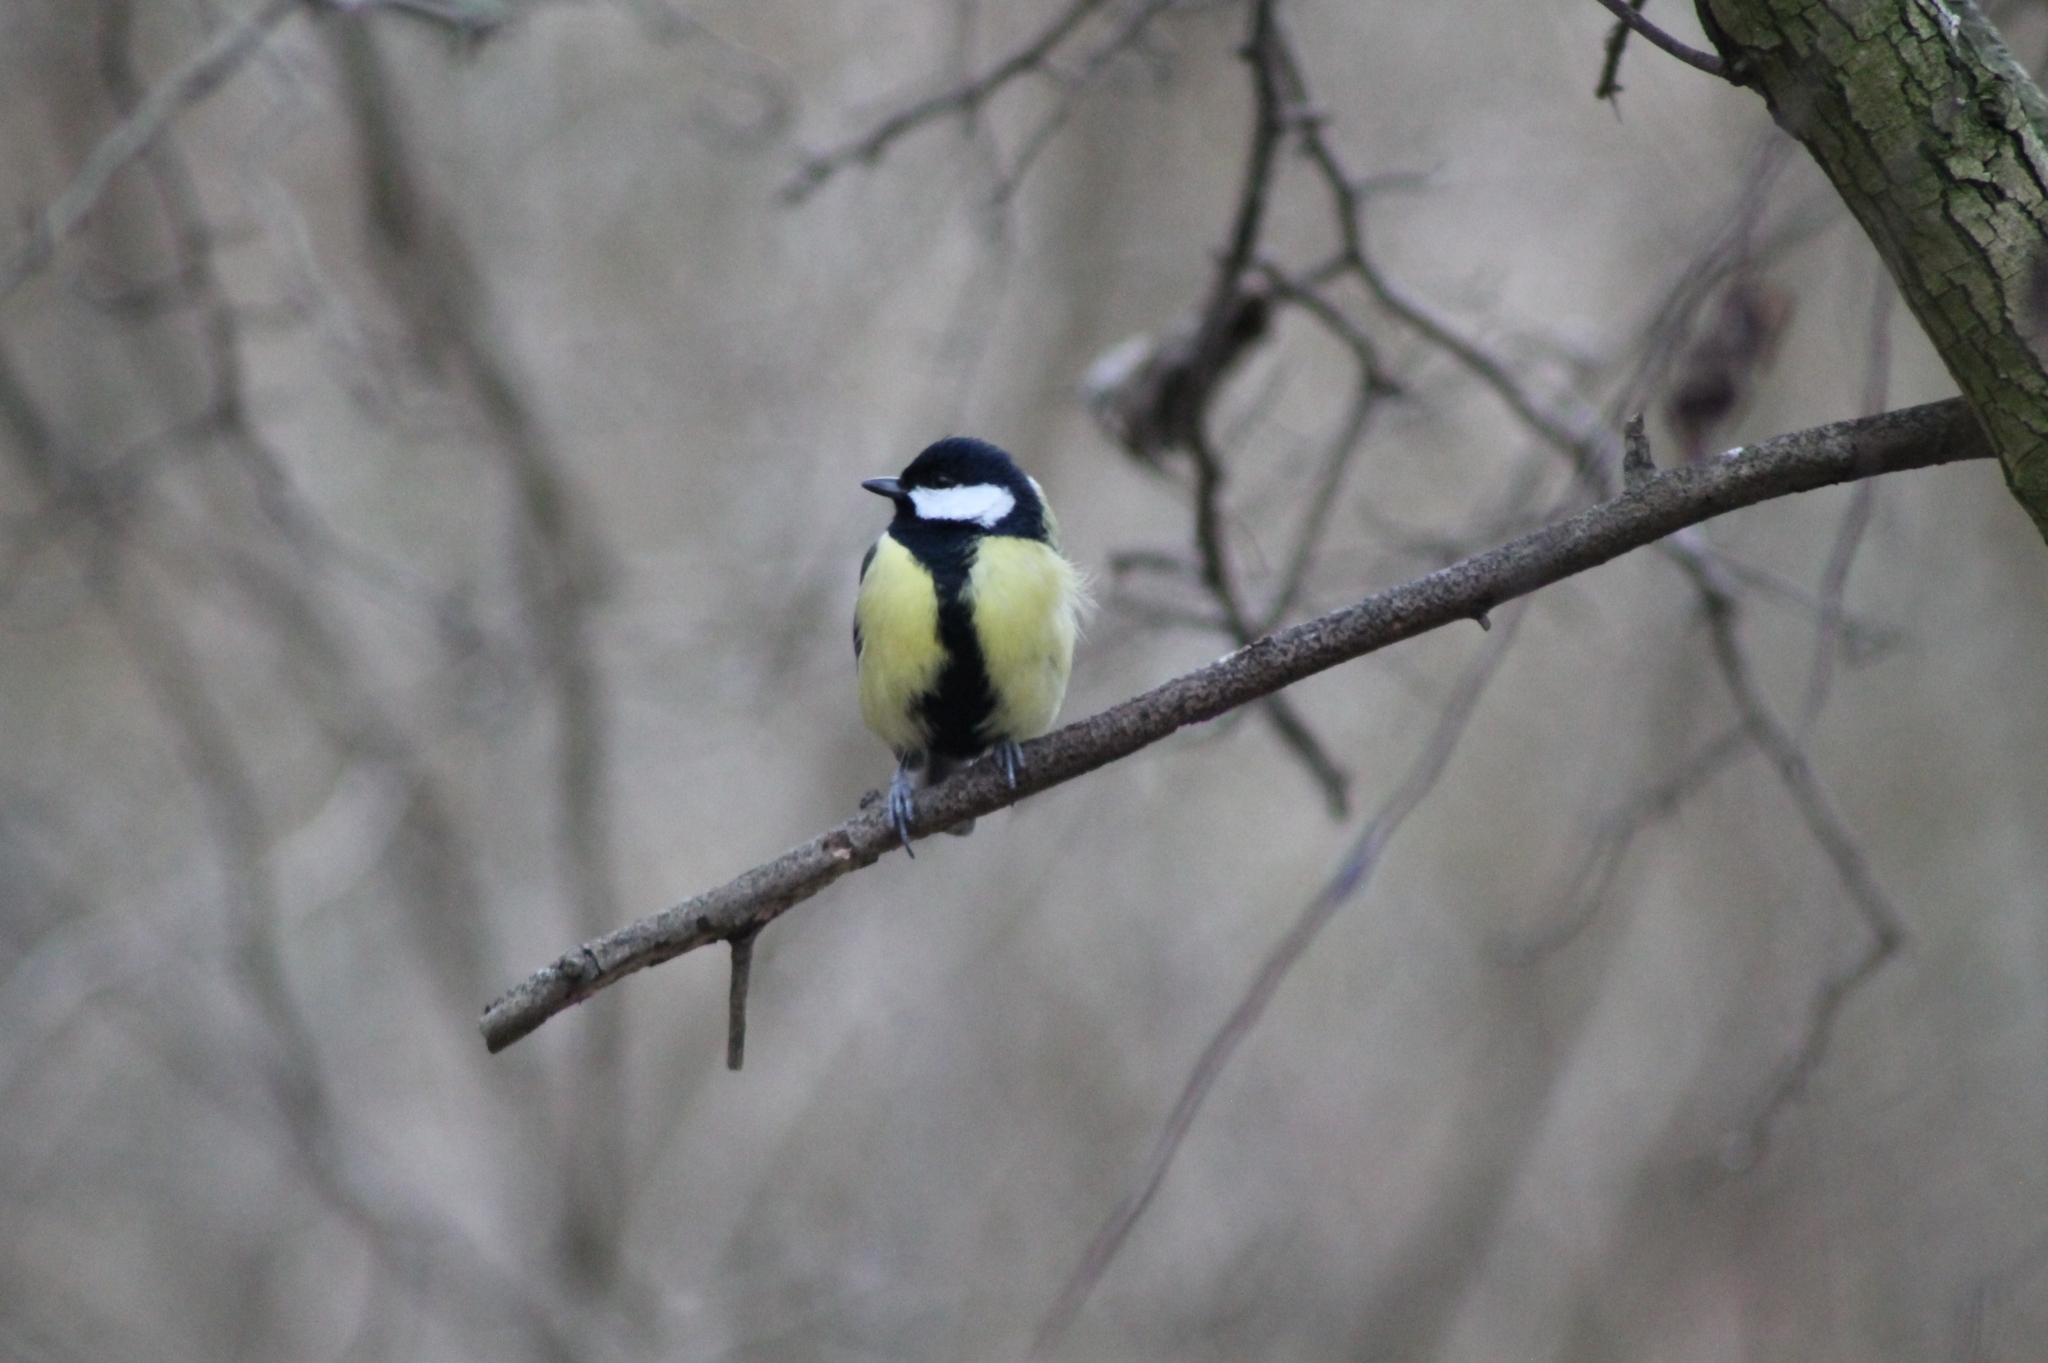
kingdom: Animalia
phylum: Chordata
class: Aves
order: Passeriformes
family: Paridae
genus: Parus
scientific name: Parus major
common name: Great tit
